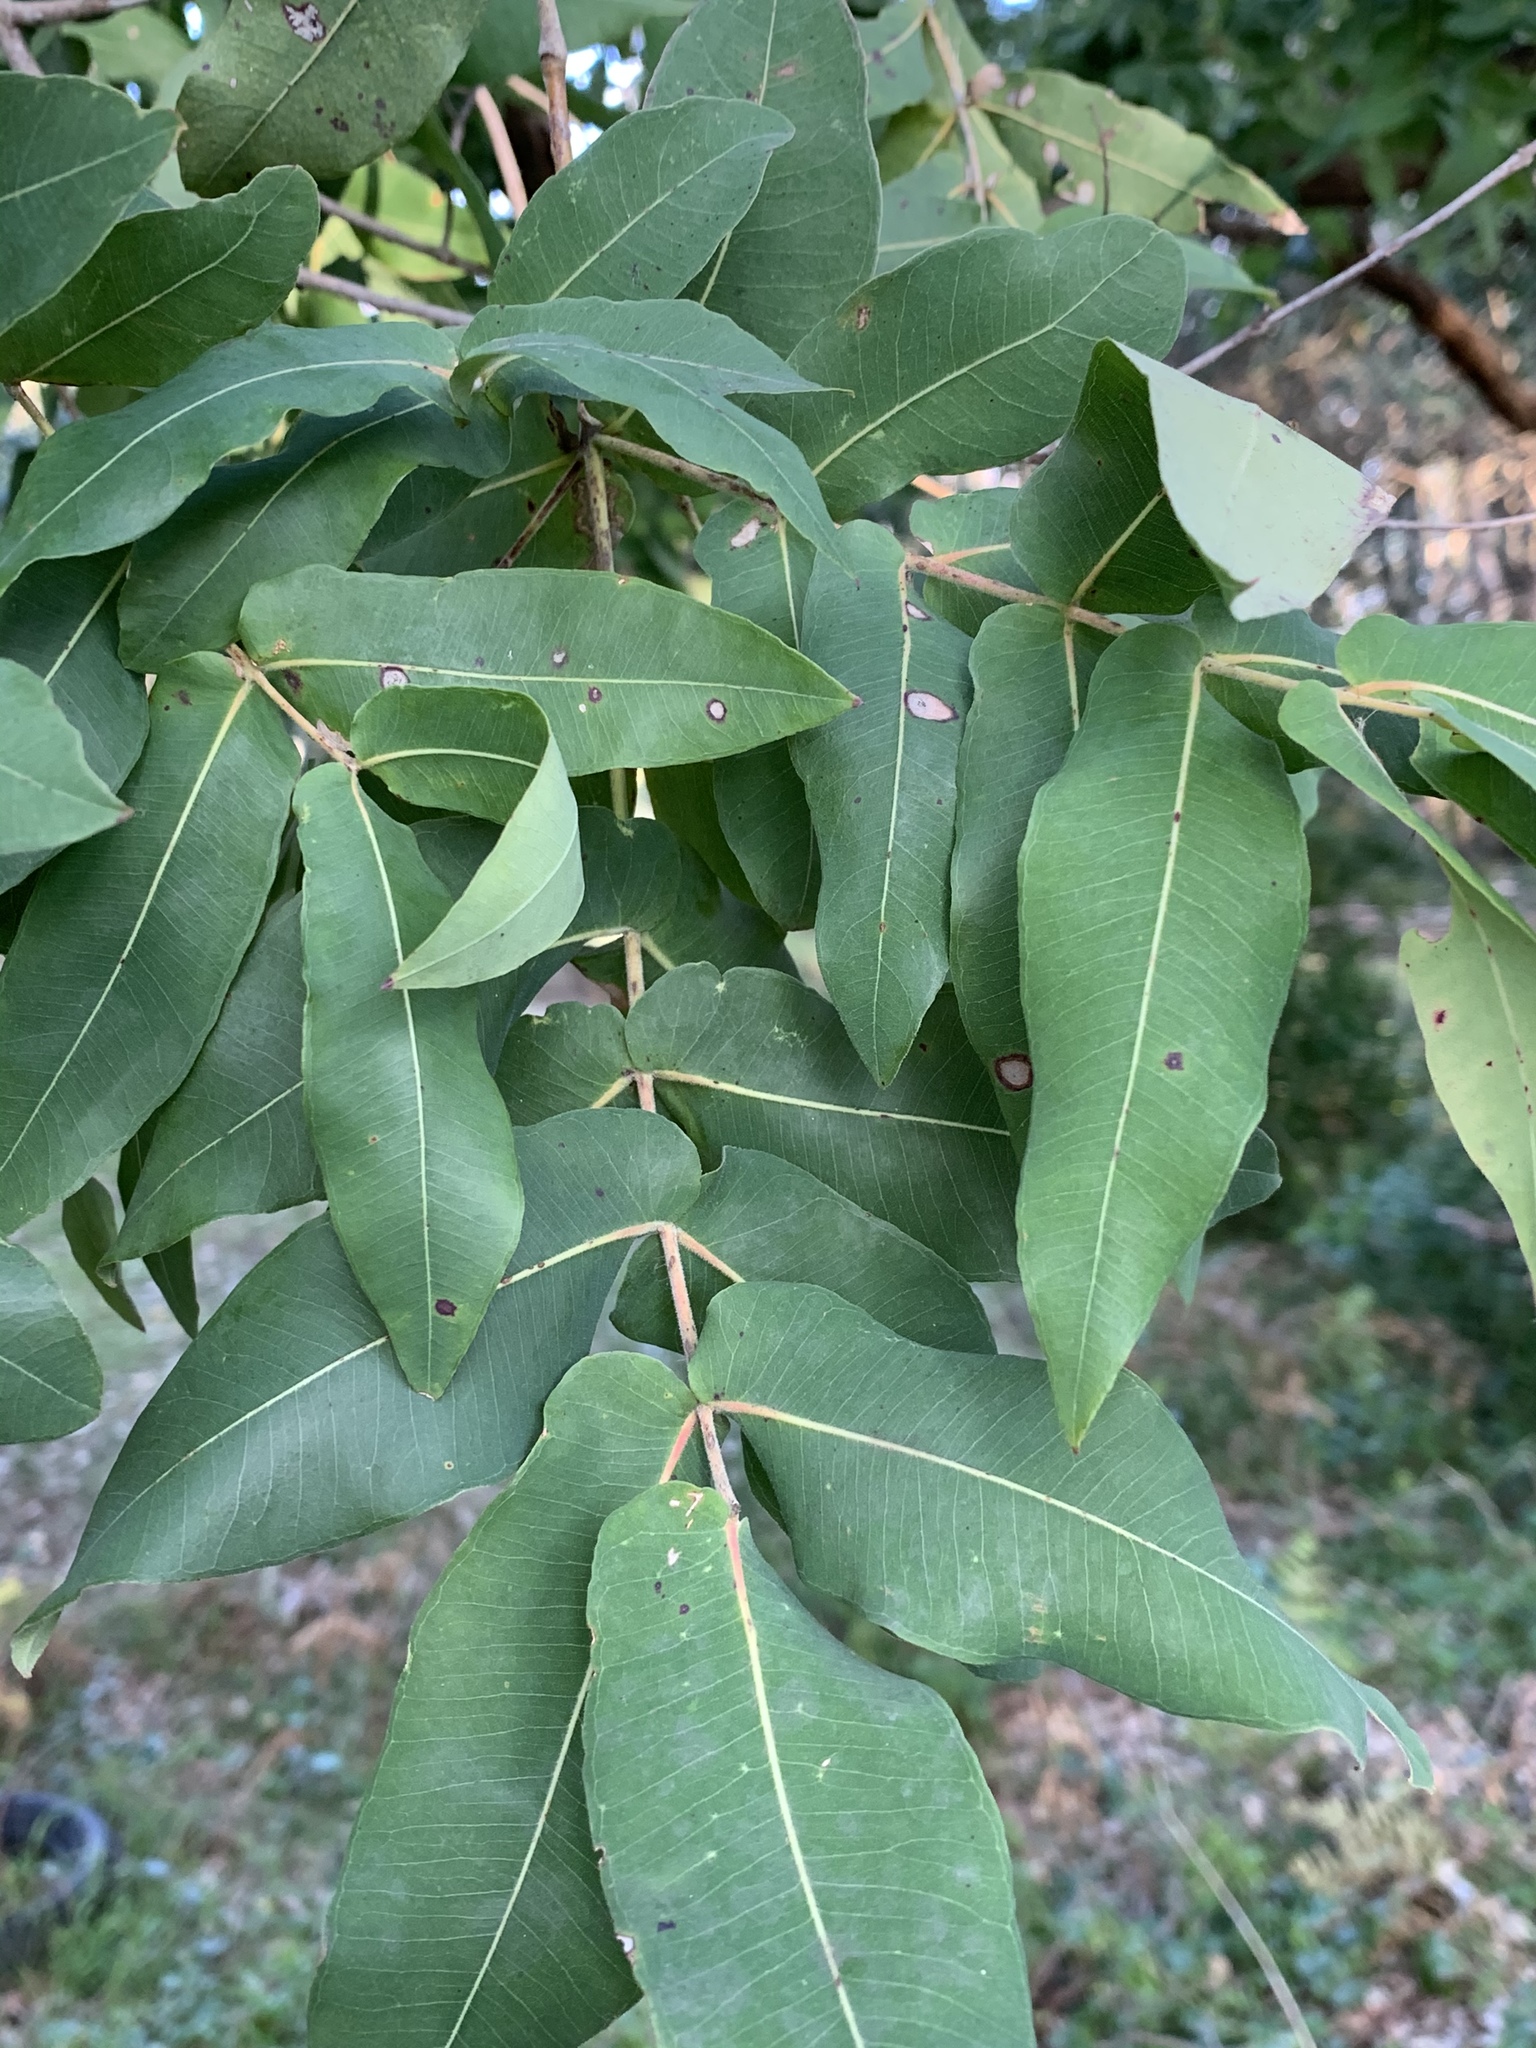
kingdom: Plantae
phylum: Tracheophyta
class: Magnoliopsida
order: Myrtales
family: Myrtaceae
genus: Angophora
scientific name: Angophora subvelutina
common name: Broad-leaved apple
